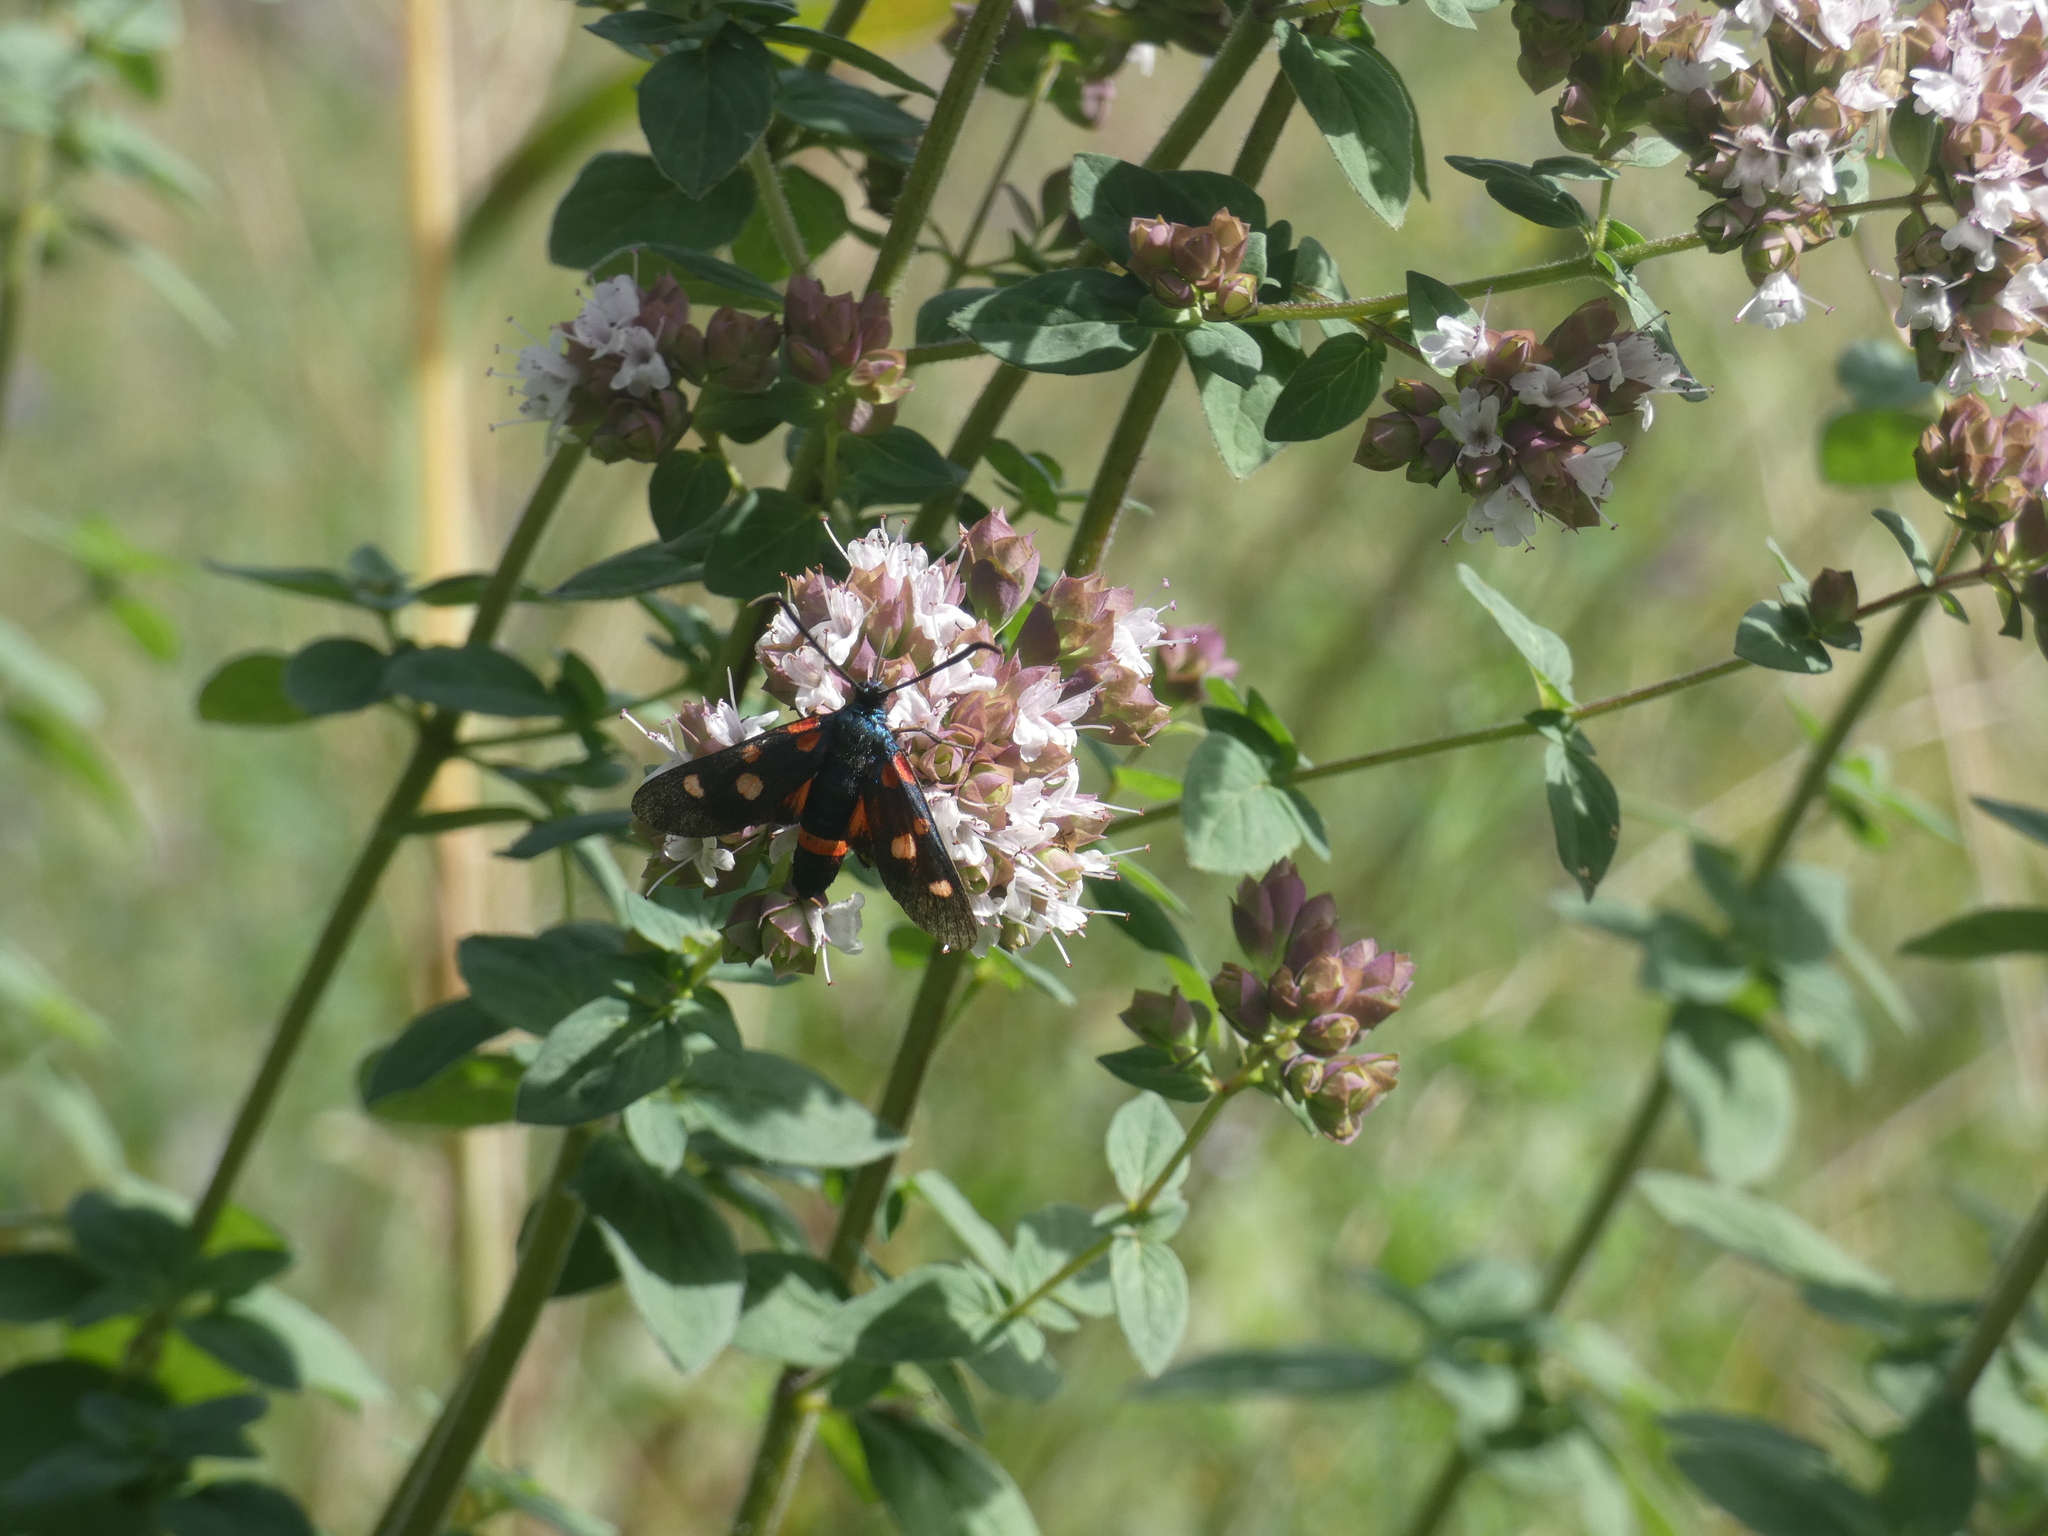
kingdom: Animalia
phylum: Arthropoda
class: Insecta
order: Lepidoptera
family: Zygaenidae
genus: Zygaena
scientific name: Zygaena ephialtes
